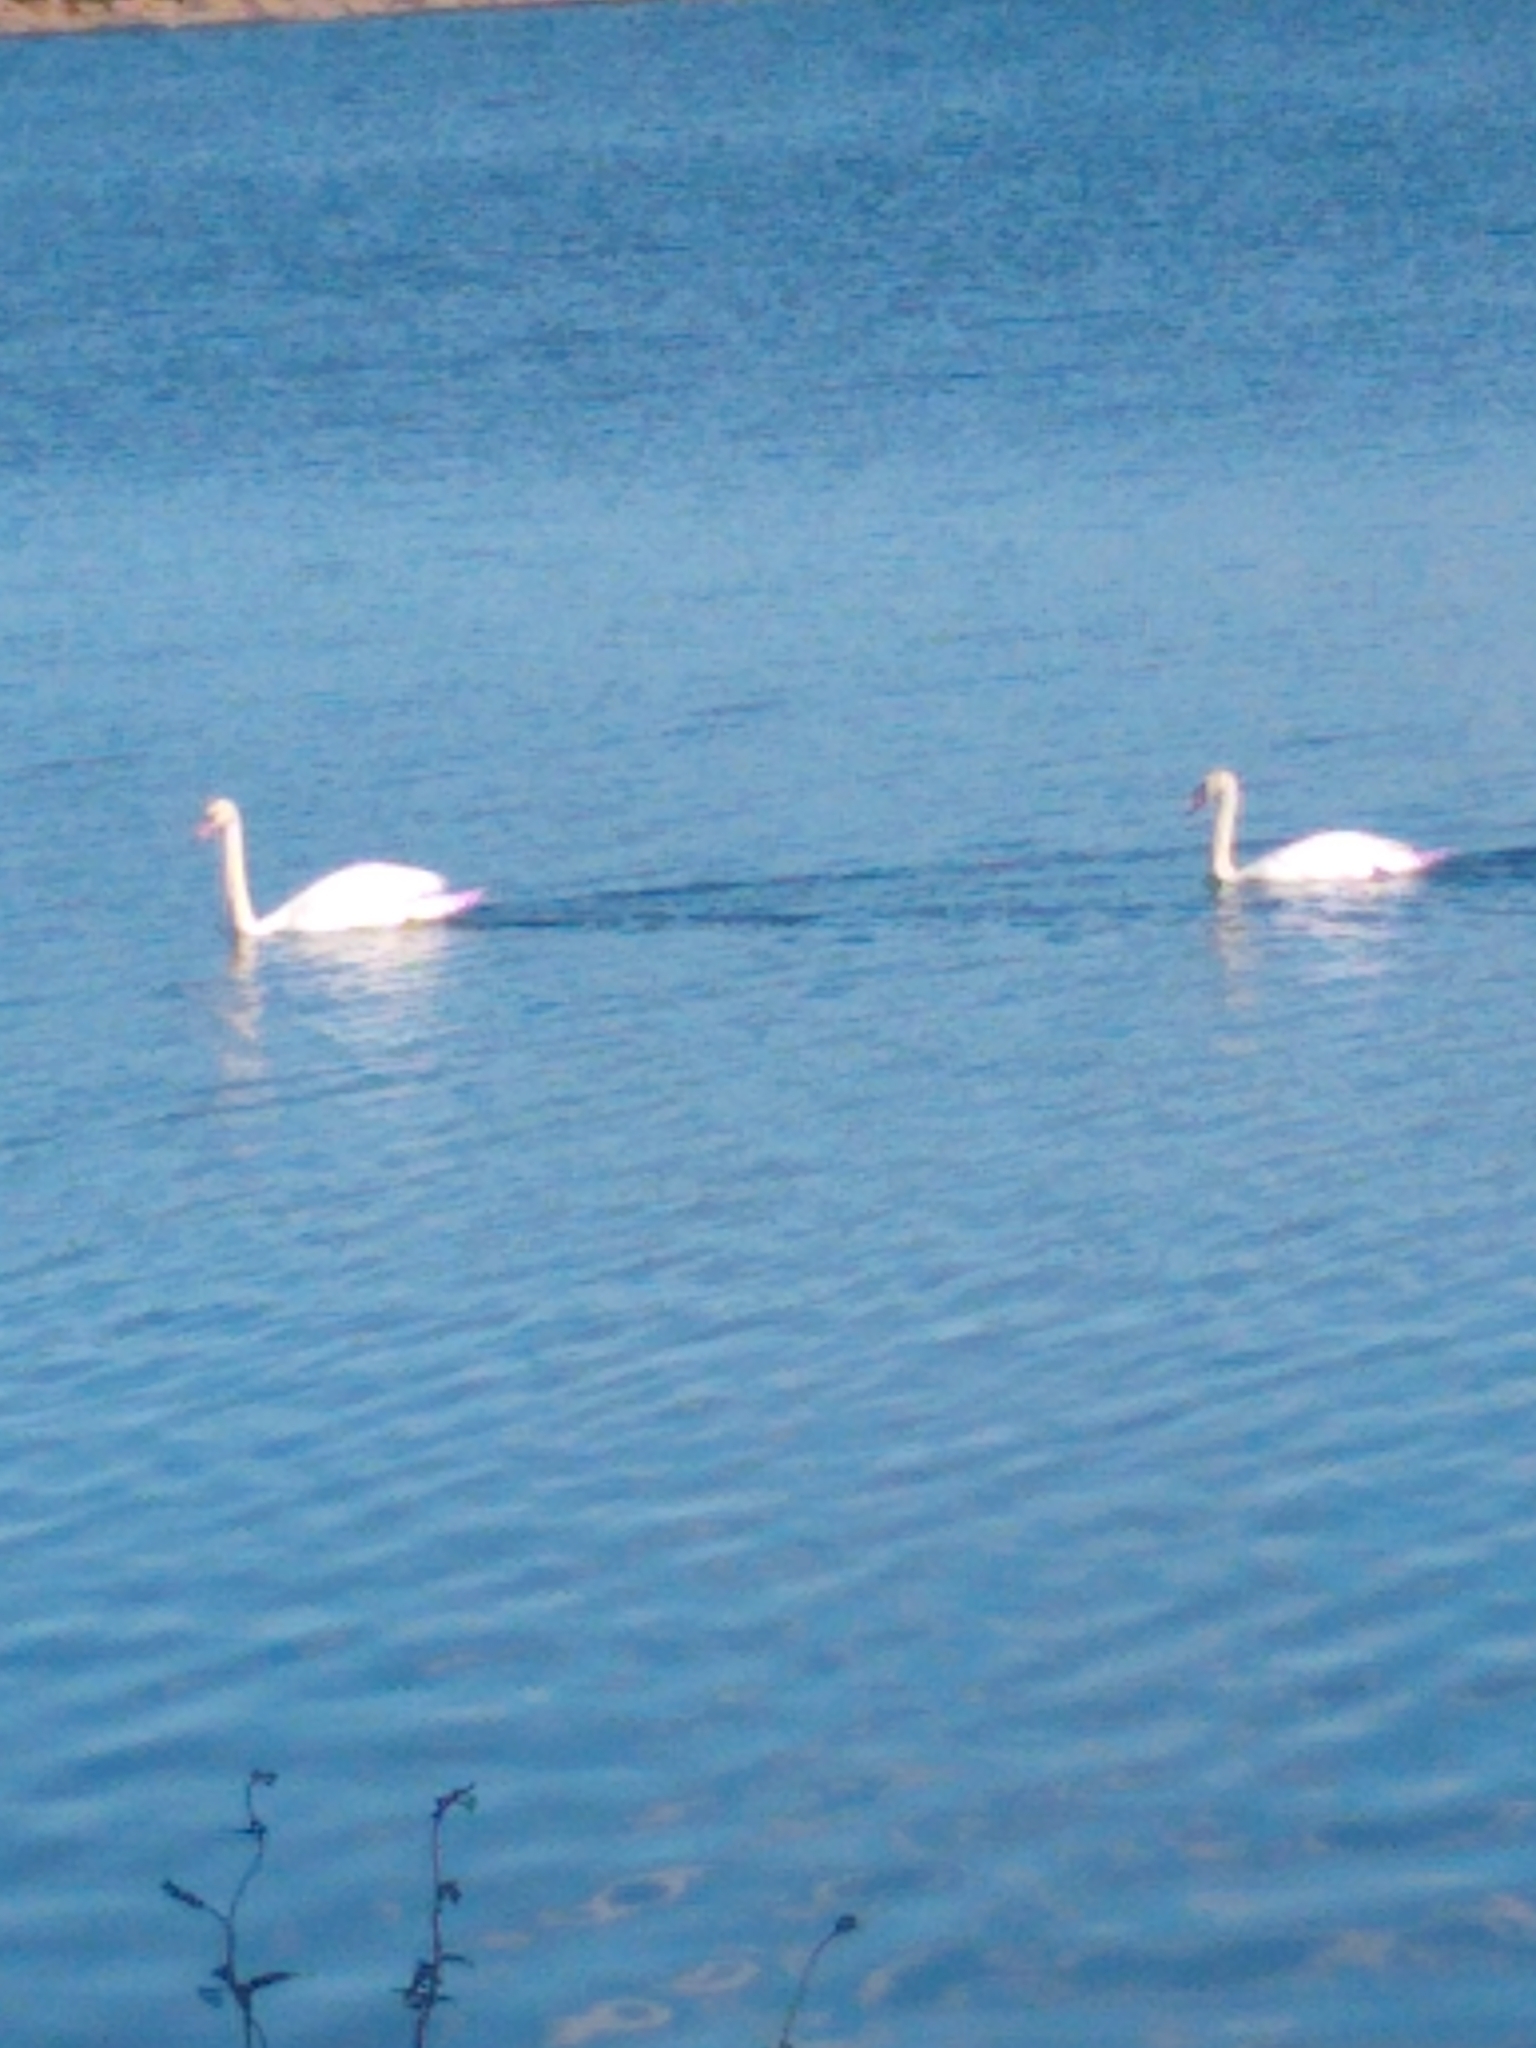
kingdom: Animalia
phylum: Chordata
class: Aves
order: Anseriformes
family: Anatidae
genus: Cygnus
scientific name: Cygnus olor
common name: Mute swan
